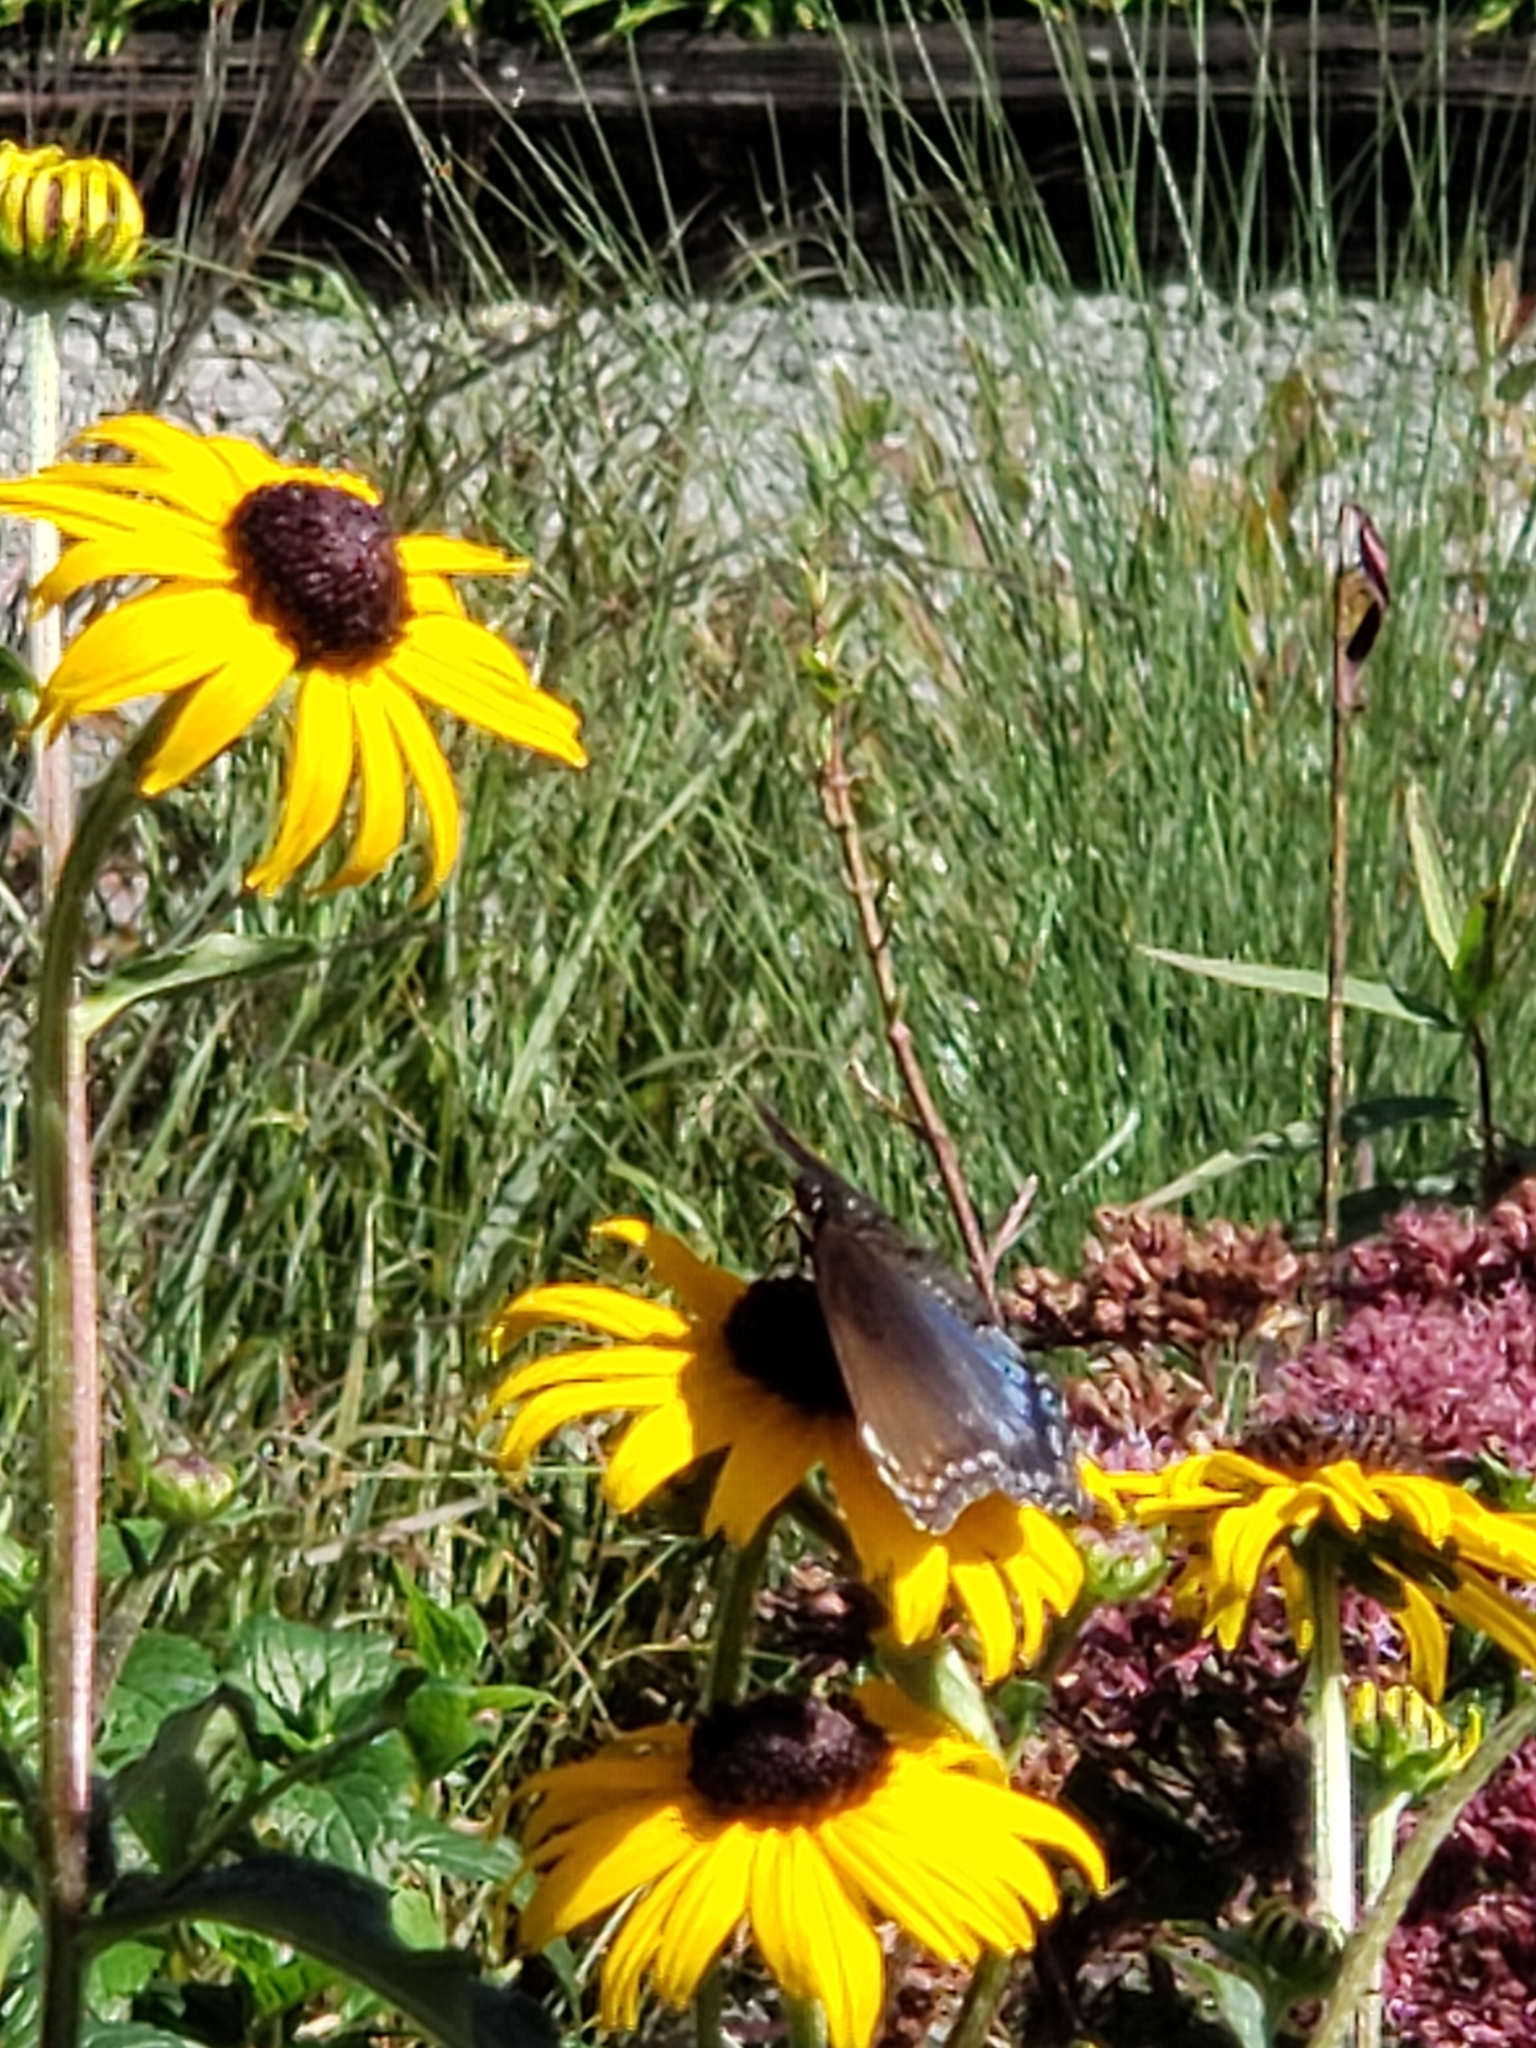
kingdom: Animalia
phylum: Arthropoda
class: Insecta
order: Lepidoptera
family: Nymphalidae
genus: Limenitis
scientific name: Limenitis astyanax
